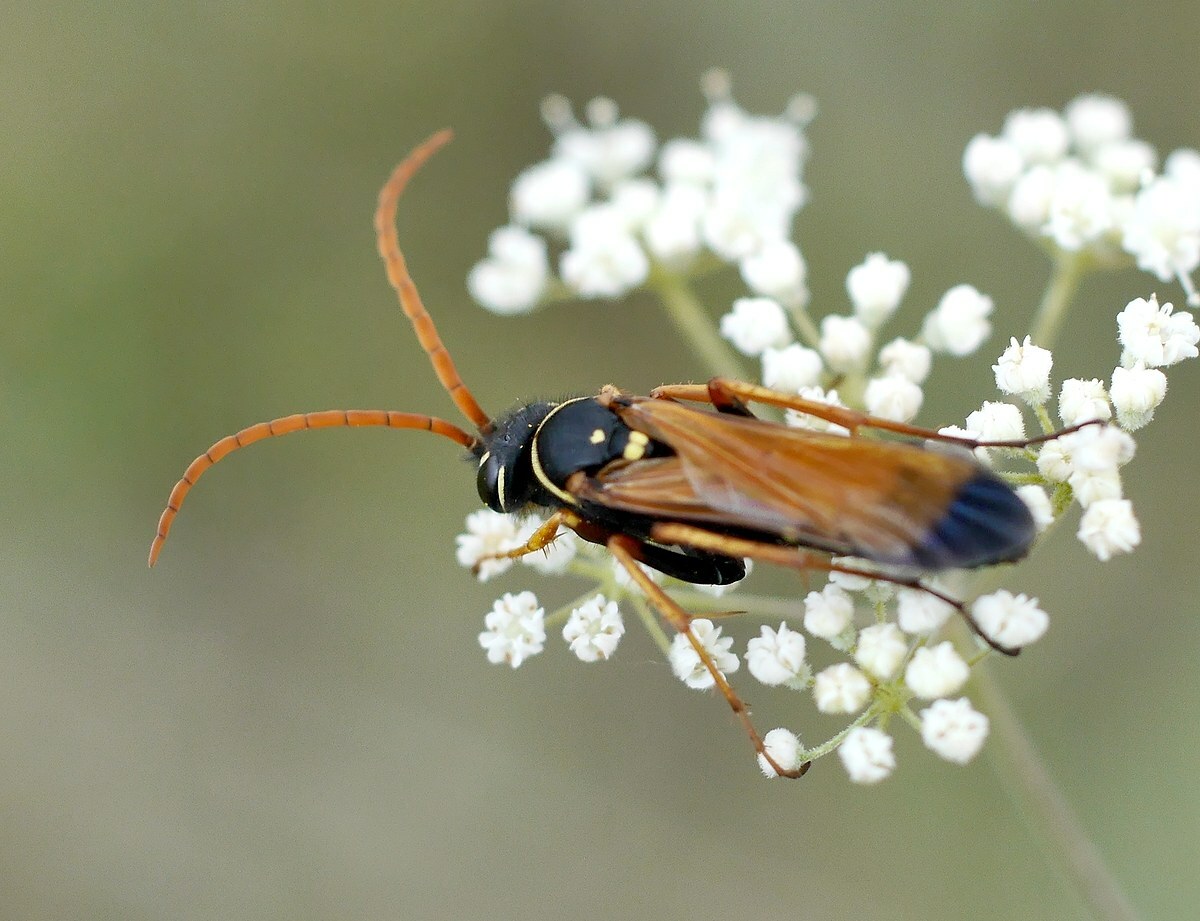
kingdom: Animalia
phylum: Arthropoda
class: Insecta
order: Hymenoptera
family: Pompilidae
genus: Parabatozonus
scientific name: Parabatozonus lacerticida
